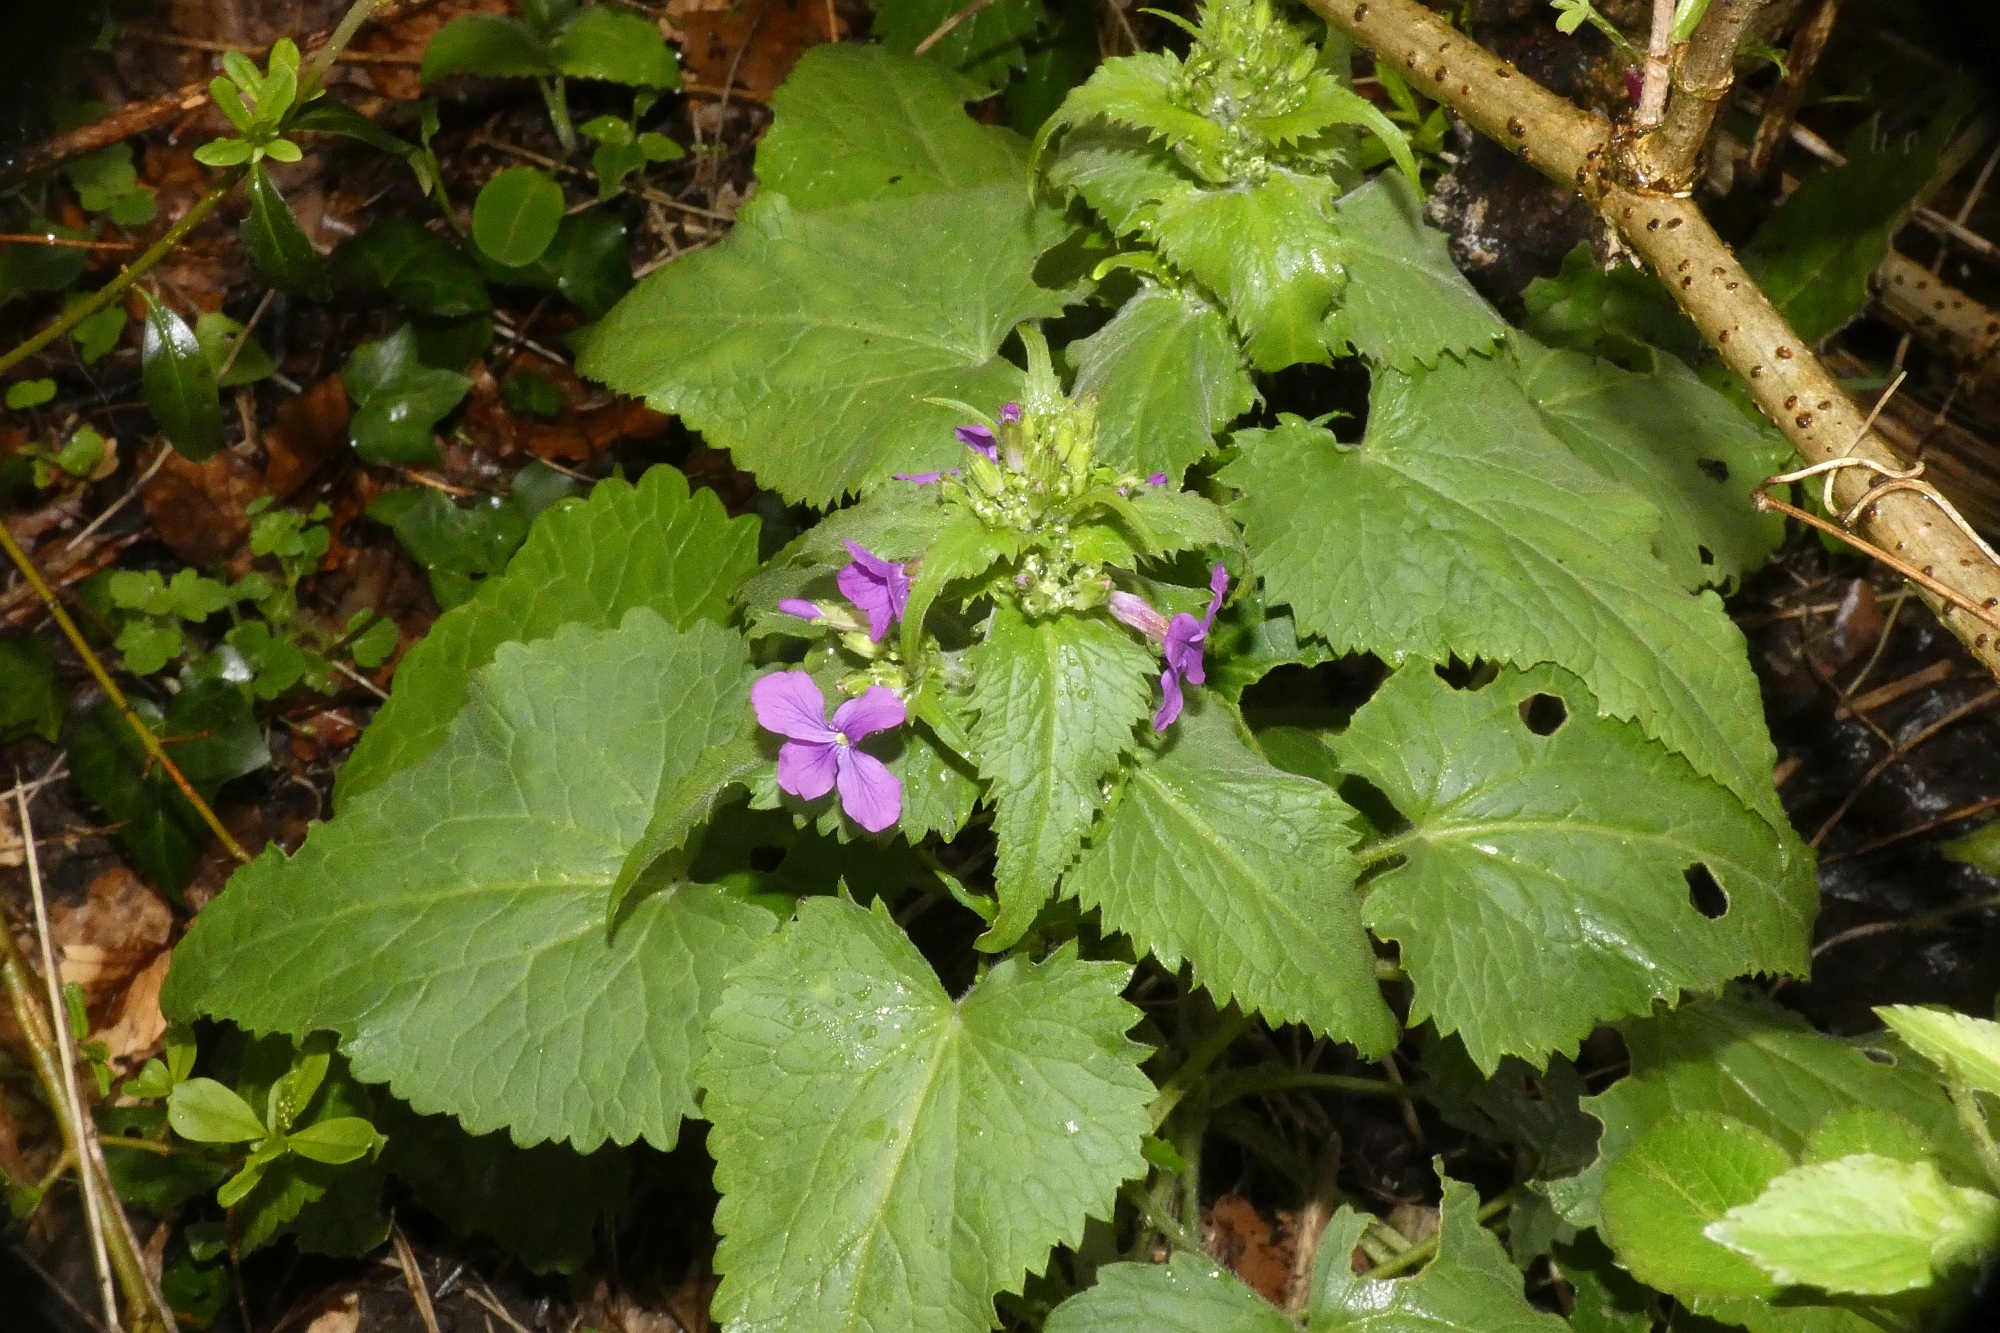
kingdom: Plantae
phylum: Tracheophyta
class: Magnoliopsida
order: Brassicales
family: Brassicaceae
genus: Lunaria
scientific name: Lunaria annua
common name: Honesty
